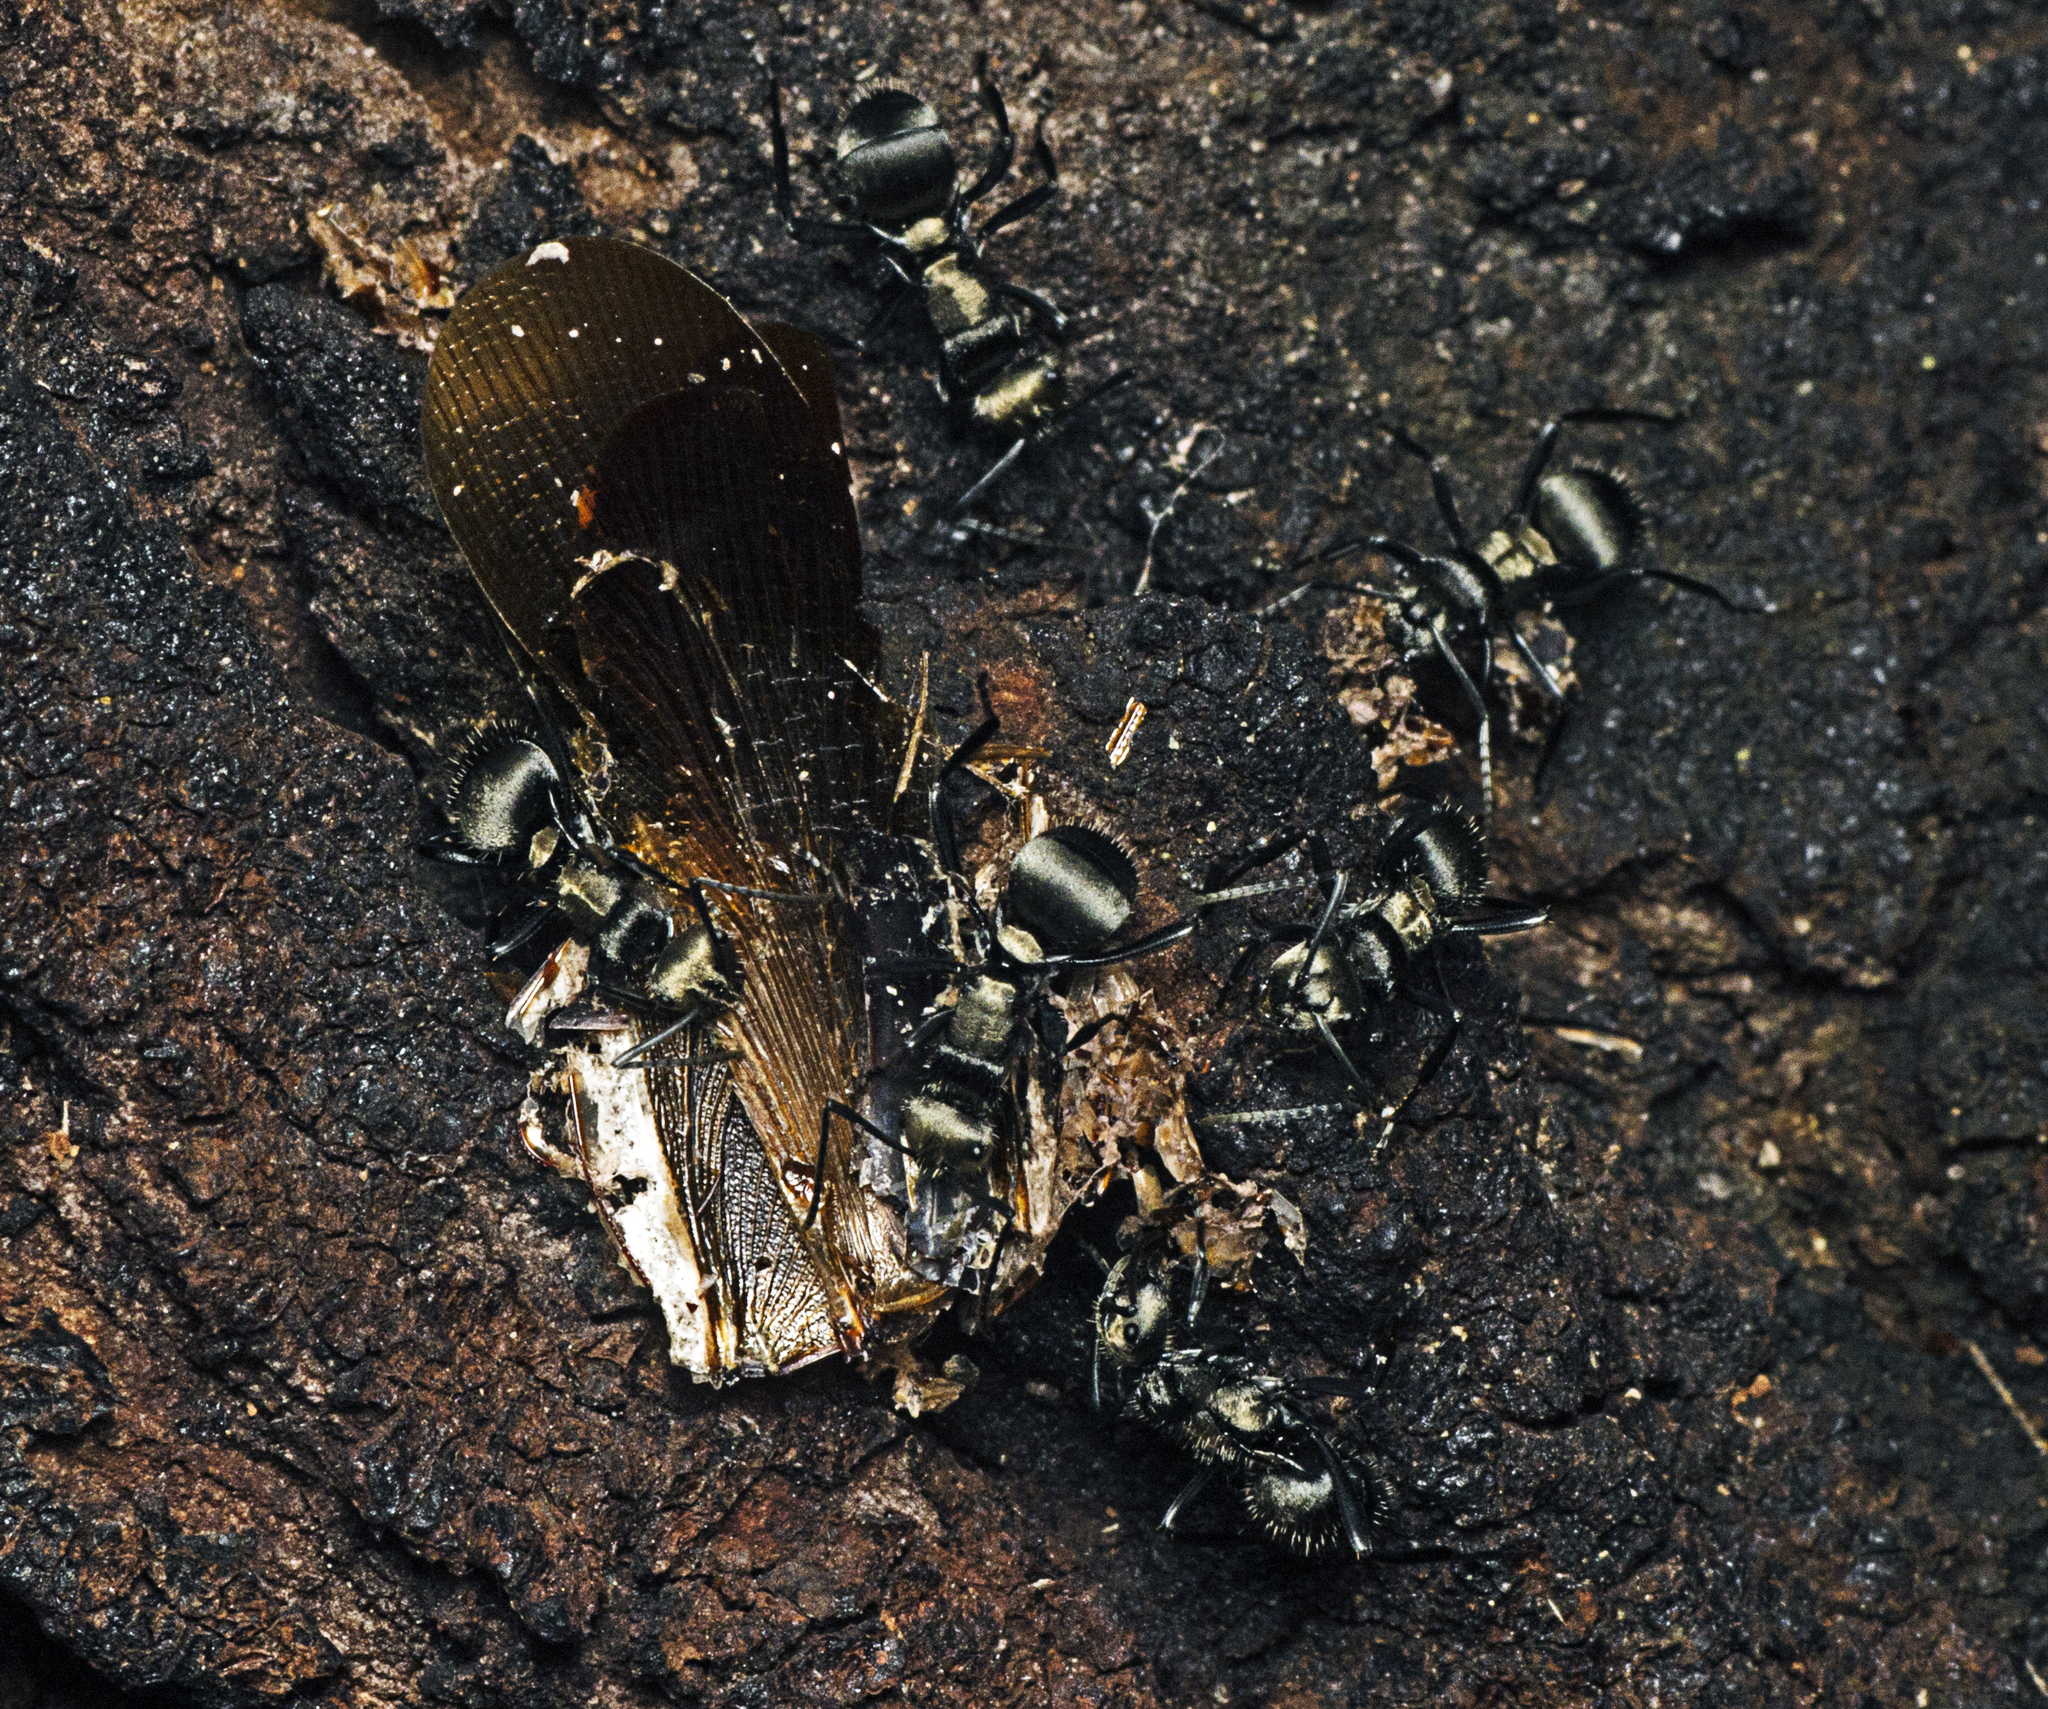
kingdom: Animalia
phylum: Arthropoda
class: Insecta
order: Hymenoptera
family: Formicidae
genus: Polyrhachis
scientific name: Polyrhachis daemeli
